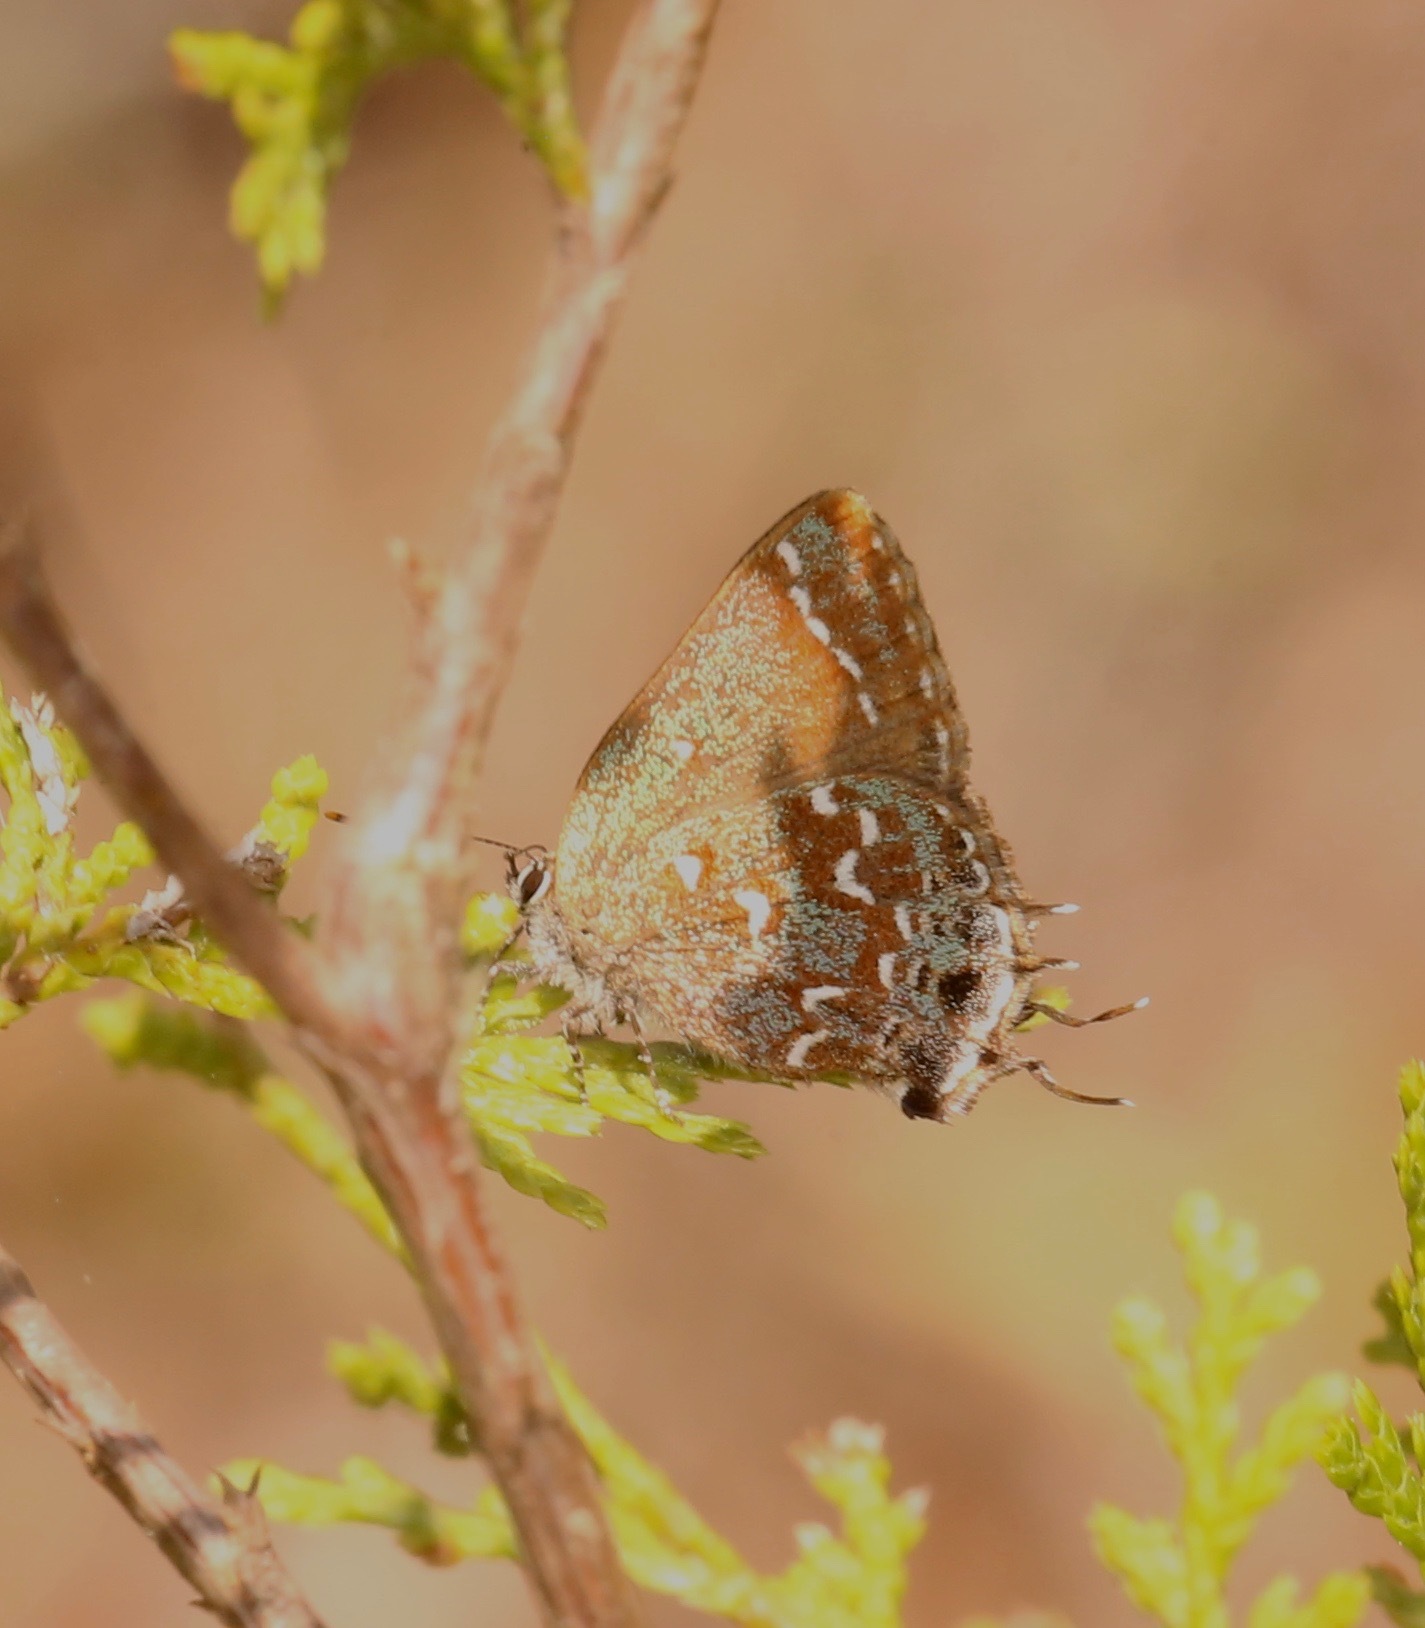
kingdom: Animalia
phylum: Arthropoda
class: Insecta
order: Lepidoptera
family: Lycaenidae
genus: Mitoura
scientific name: Mitoura hesseli
